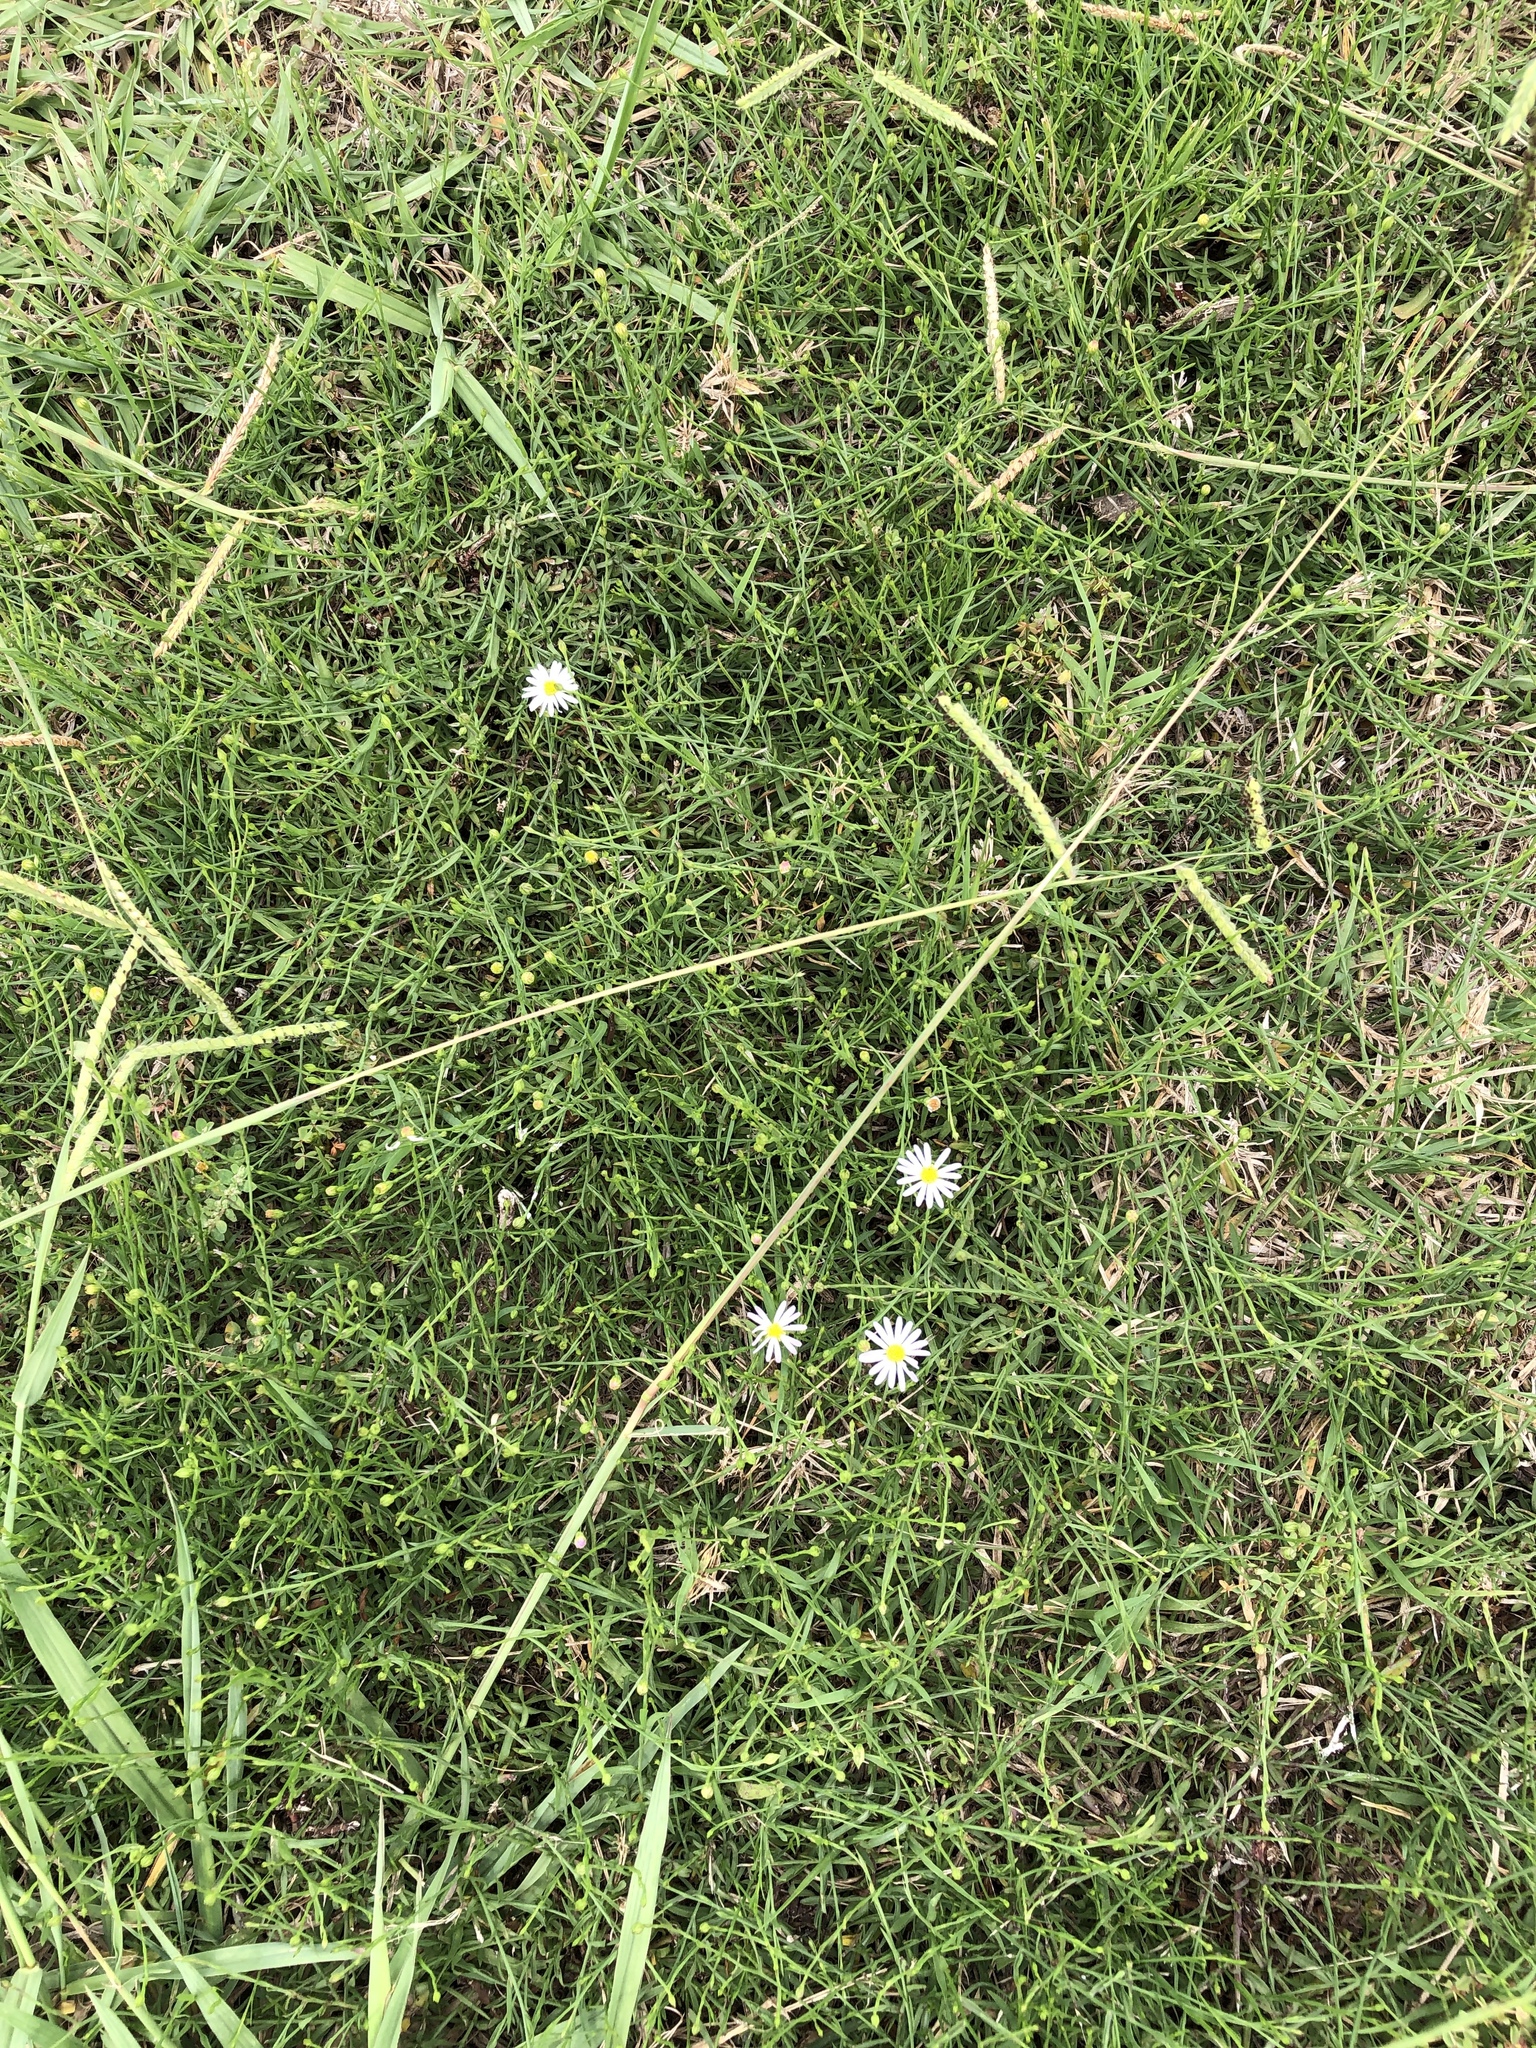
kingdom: Plantae
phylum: Tracheophyta
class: Magnoliopsida
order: Asterales
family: Asteraceae
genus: Symphyotrichum
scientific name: Symphyotrichum divaricatum
